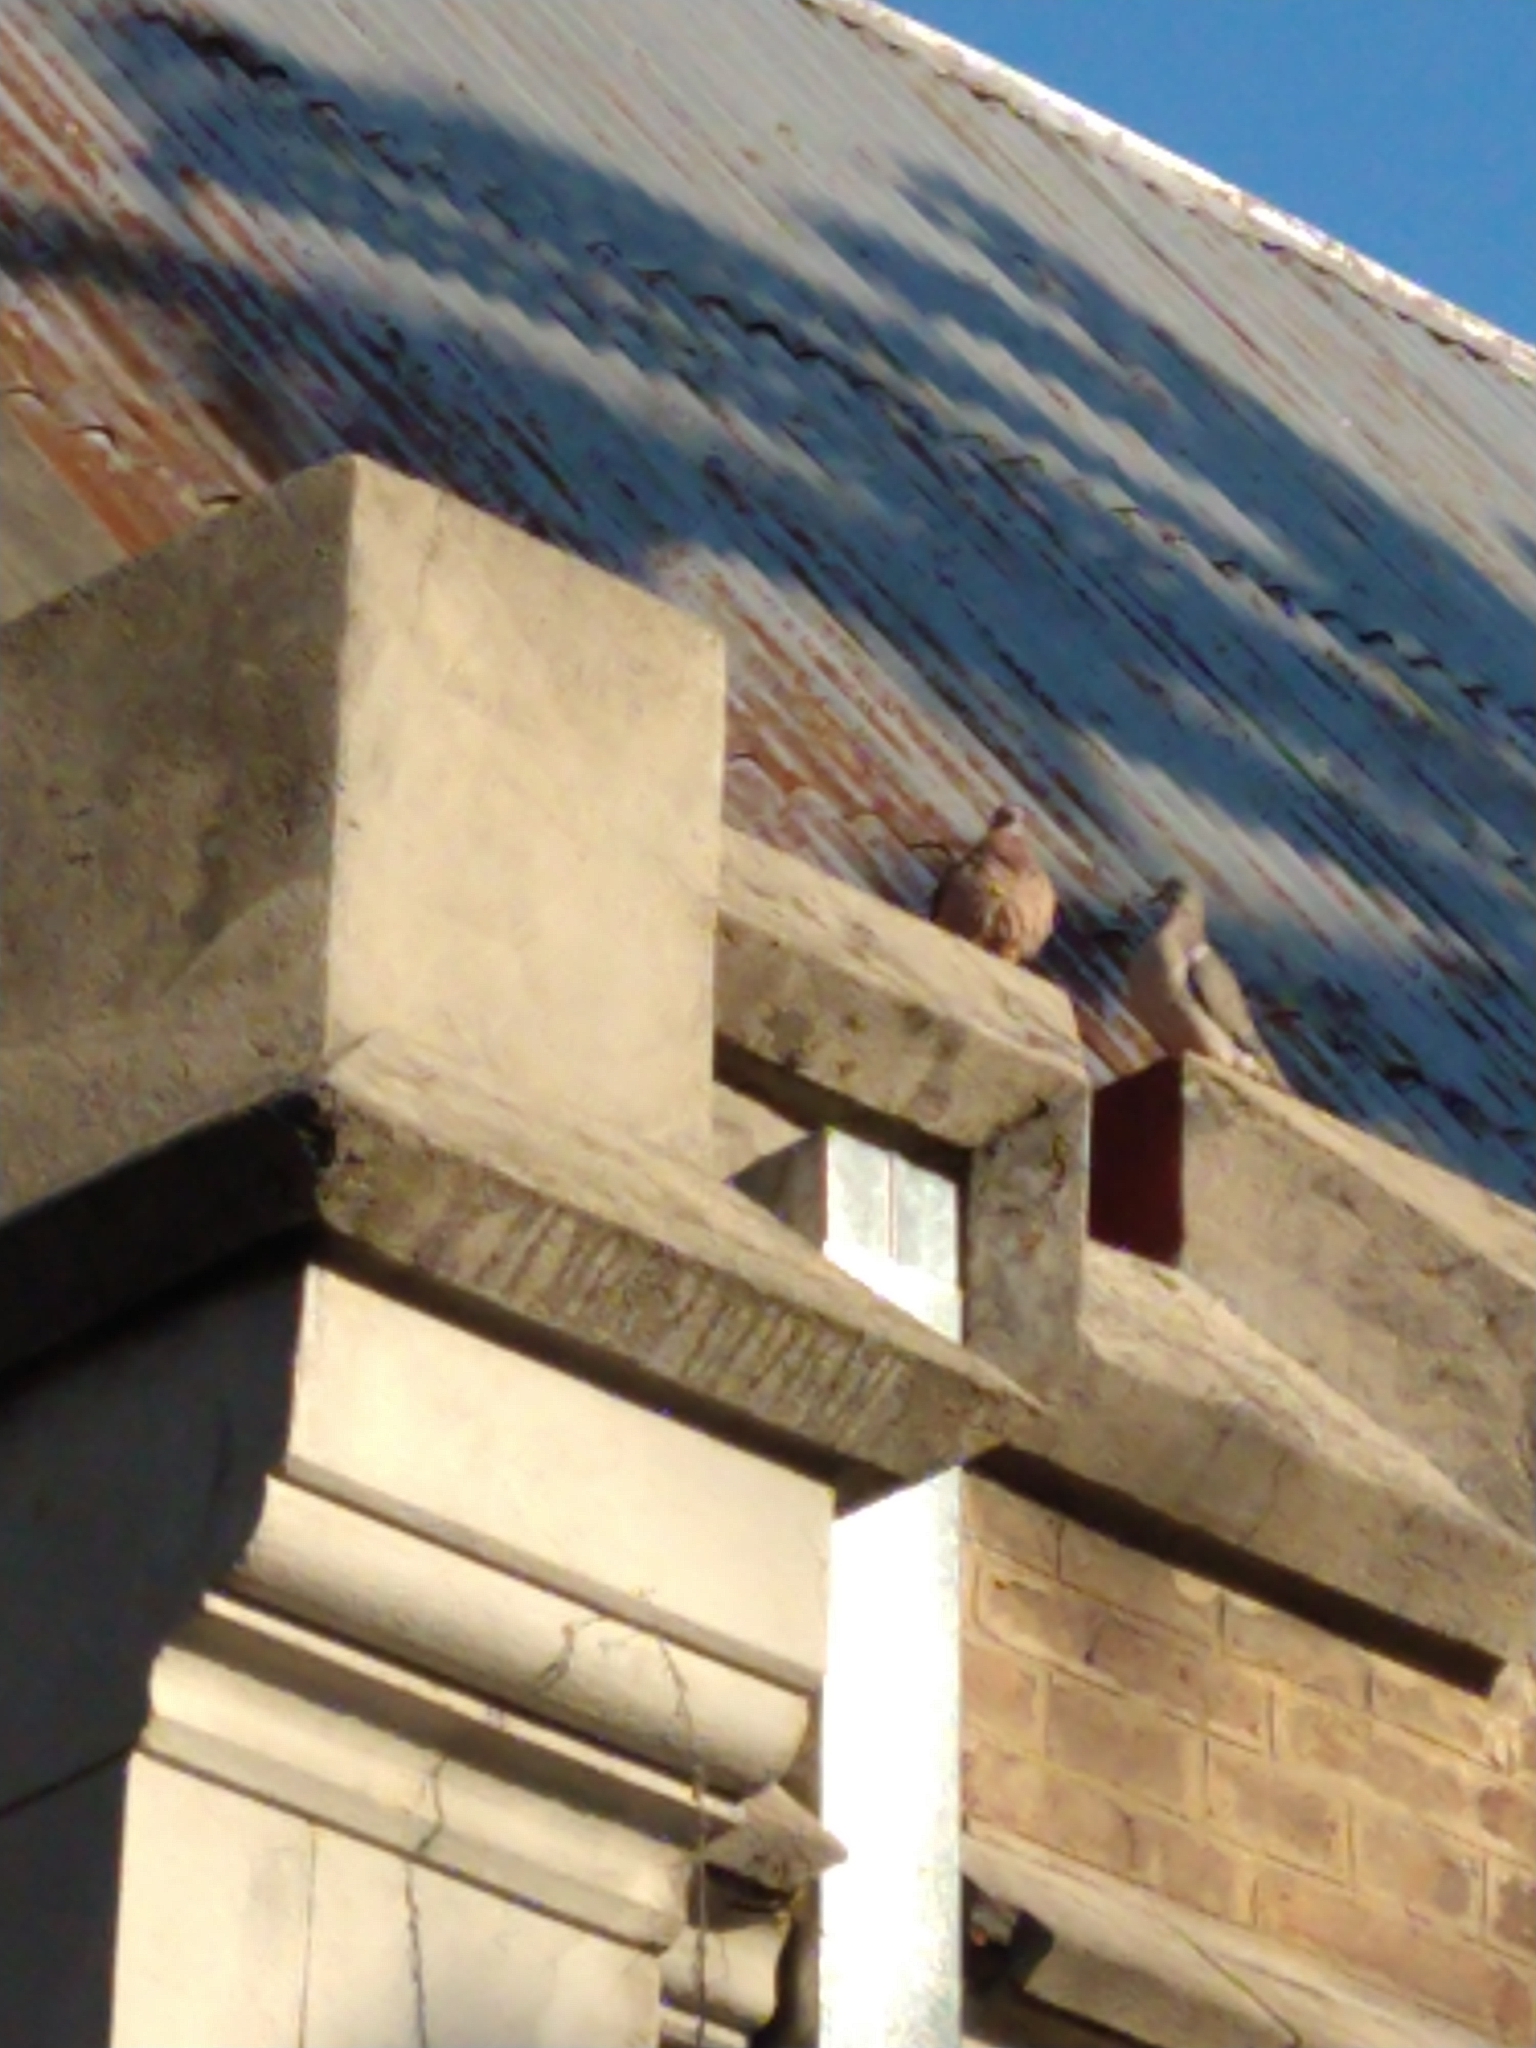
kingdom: Animalia
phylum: Chordata
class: Aves
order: Columbiformes
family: Columbidae
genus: Zenaida
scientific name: Zenaida auriculata
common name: Eared dove
